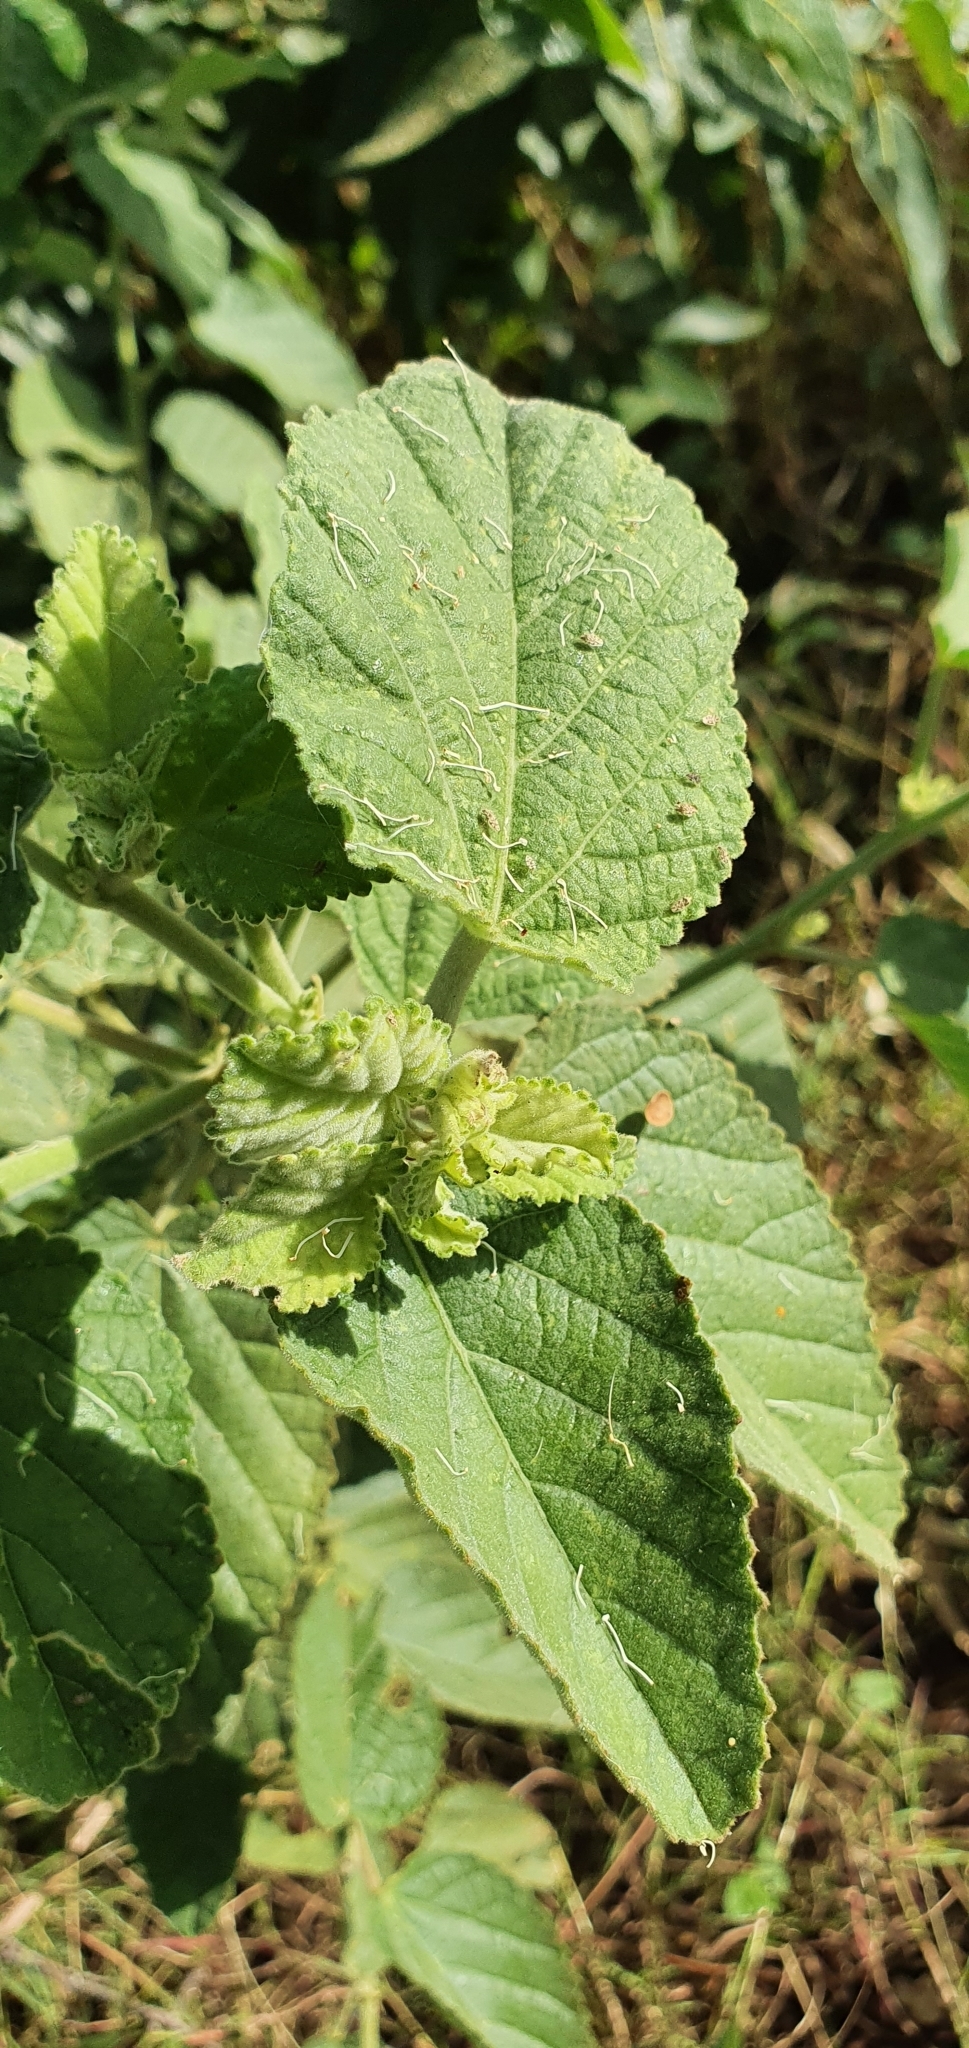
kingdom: Plantae
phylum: Tracheophyta
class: Magnoliopsida
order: Malvales
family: Malvaceae
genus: Sida
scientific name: Sida cordifolia
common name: Ilima
